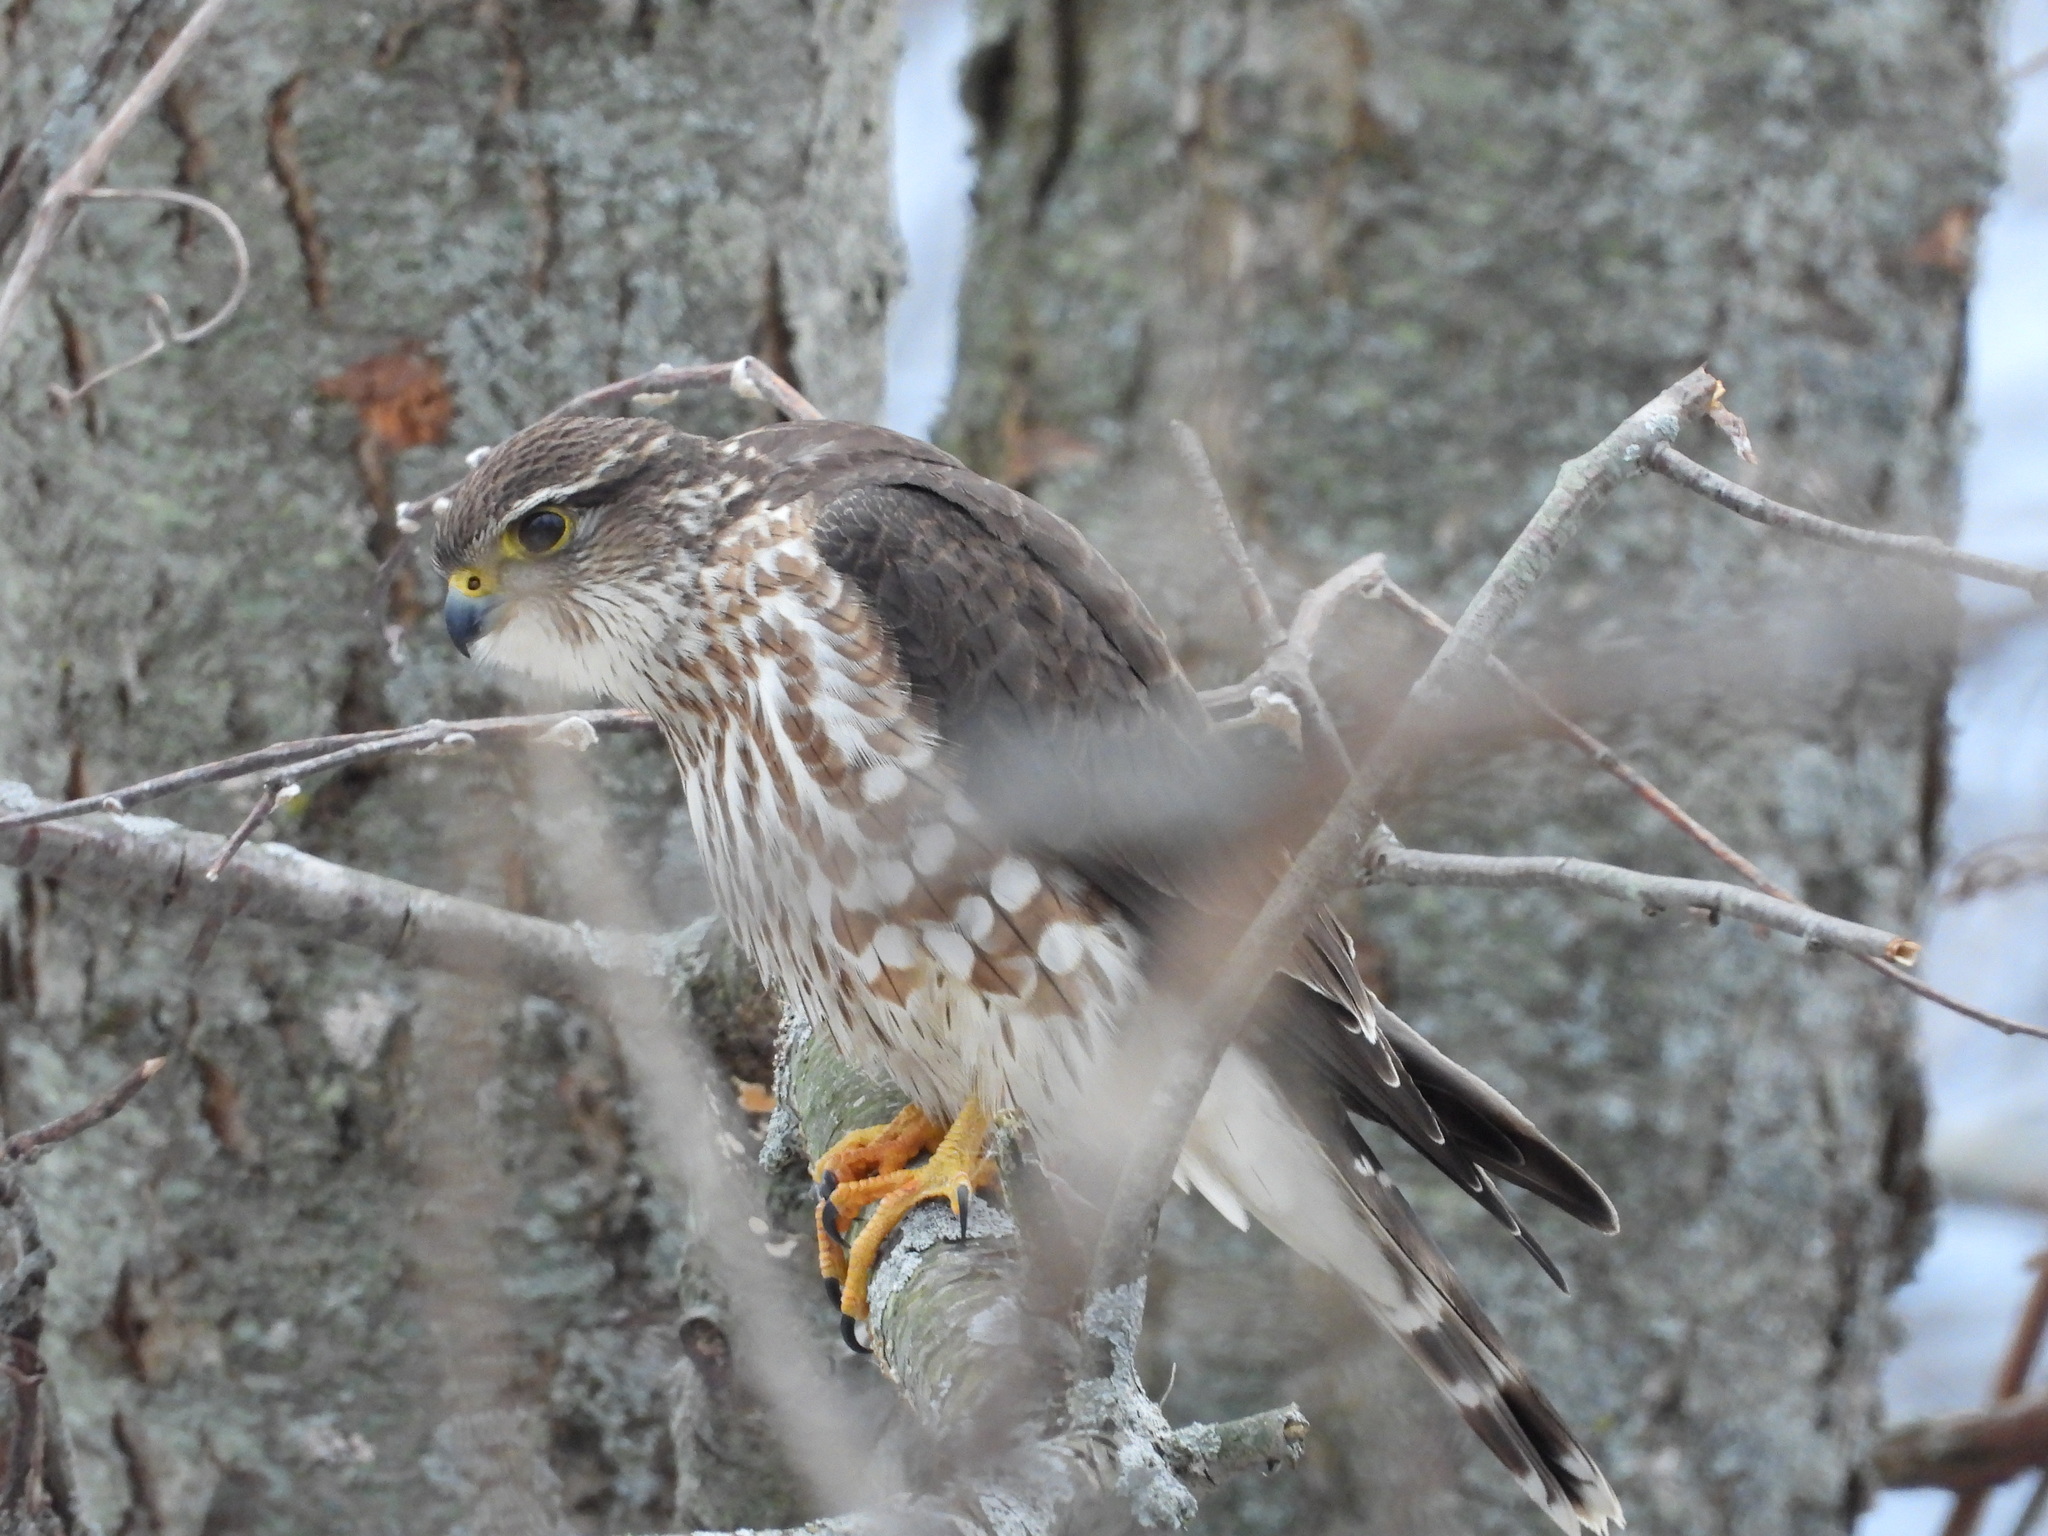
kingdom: Animalia
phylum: Chordata
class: Aves
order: Falconiformes
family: Falconidae
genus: Falco
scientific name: Falco columbarius
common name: Merlin
